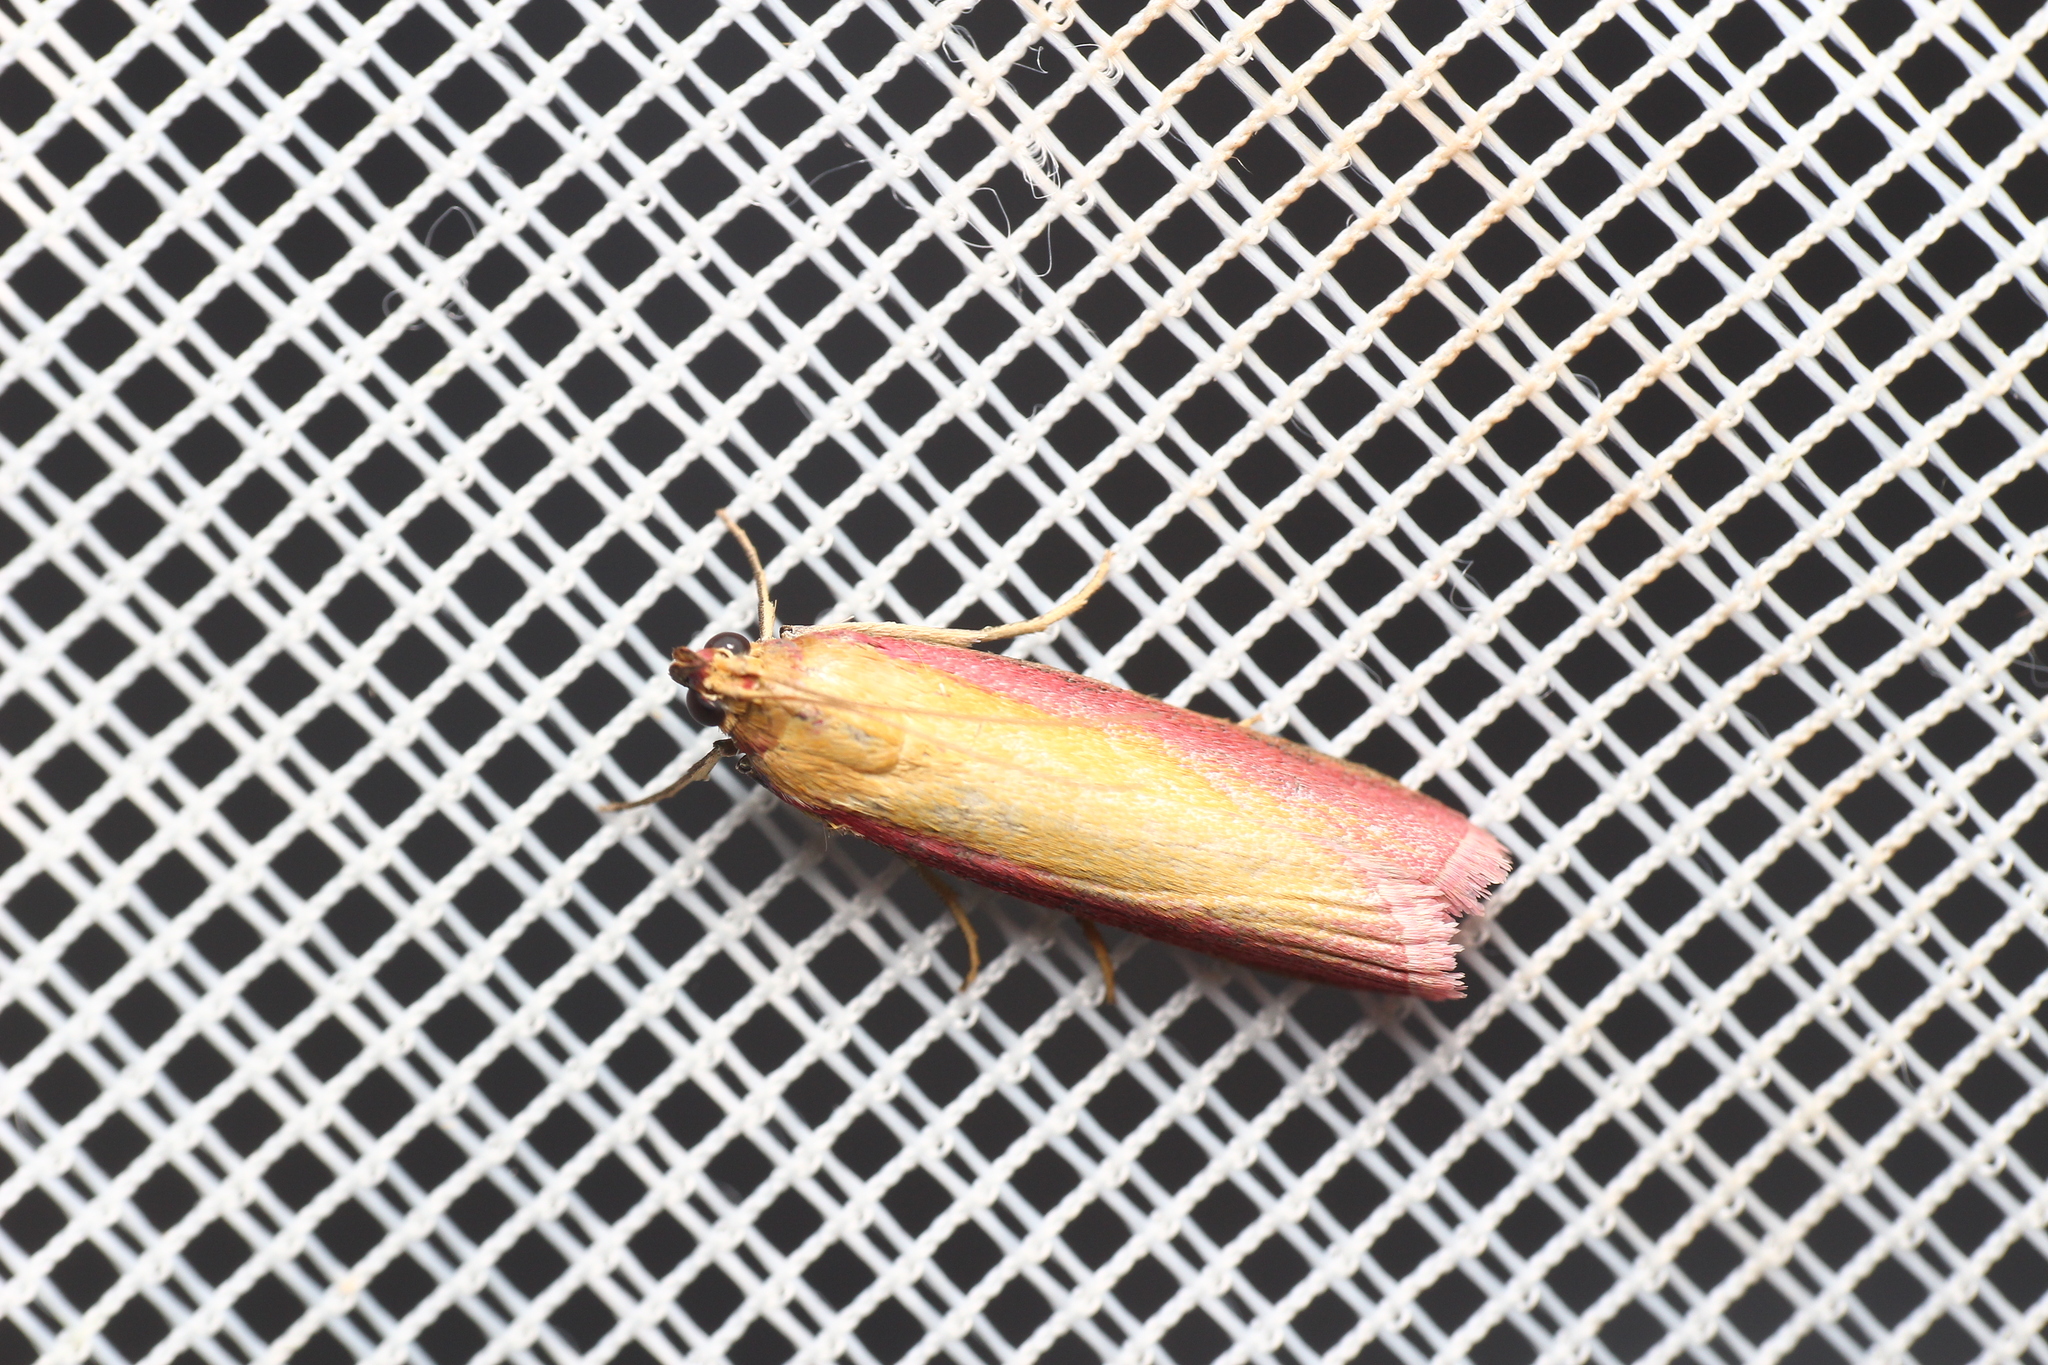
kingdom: Animalia
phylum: Arthropoda
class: Insecta
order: Lepidoptera
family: Pyralidae
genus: Oncocera
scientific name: Oncocera semirubella
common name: Rosy-striped knot-horn
